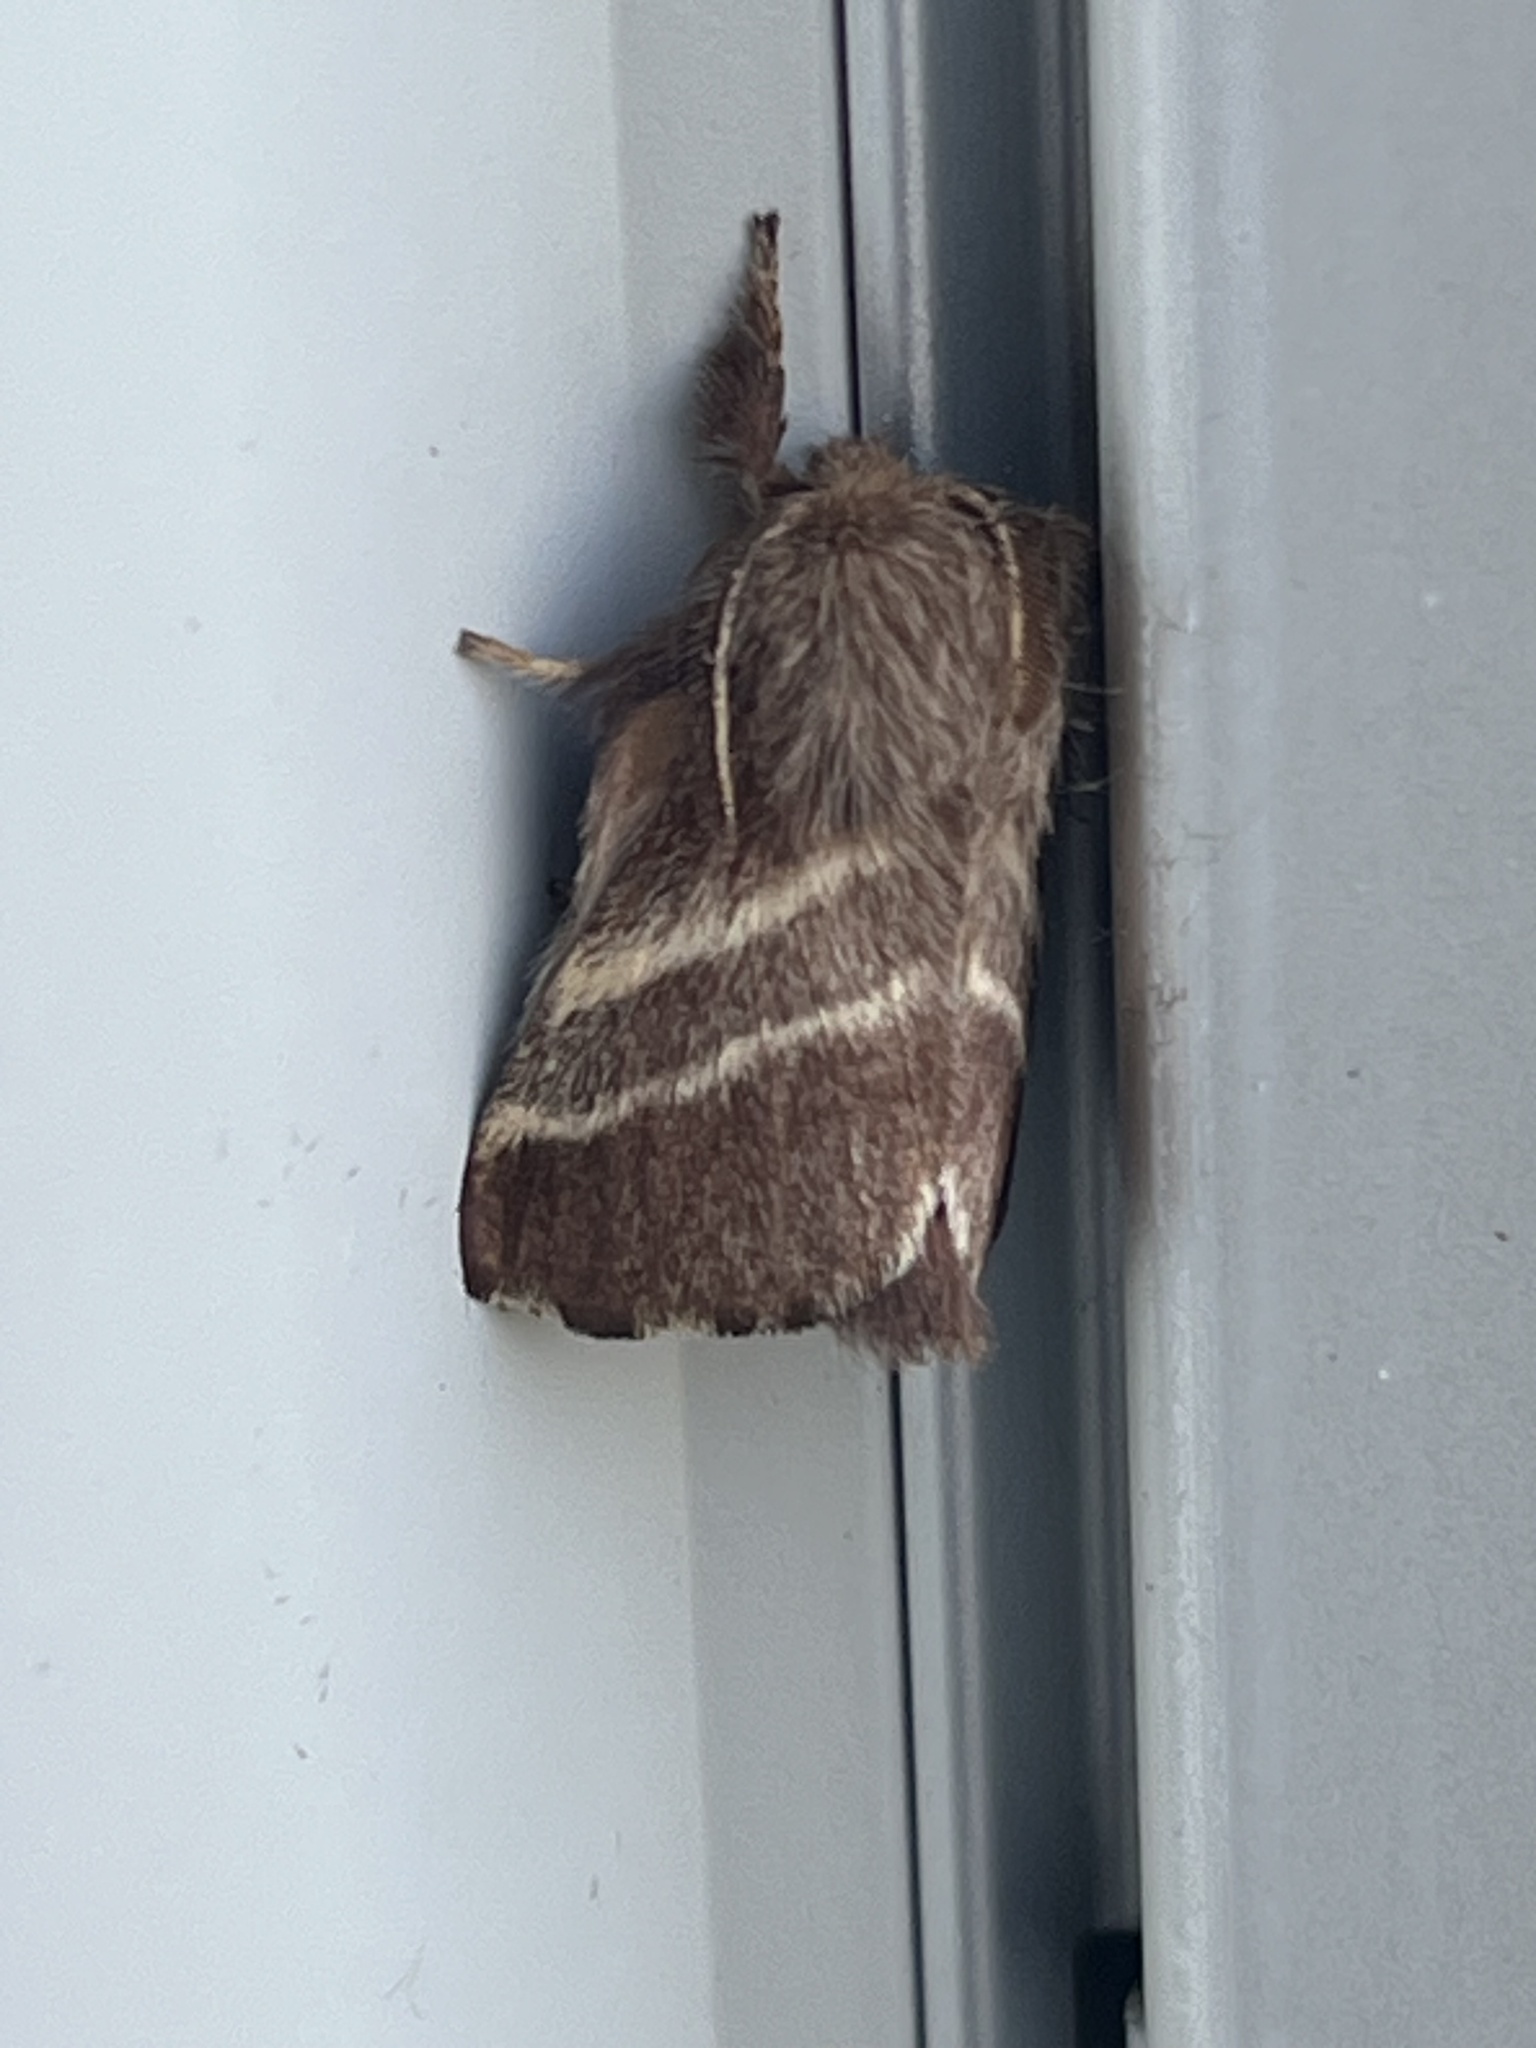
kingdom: Animalia
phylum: Arthropoda
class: Insecta
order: Lepidoptera
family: Lasiocampidae
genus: Malacosoma
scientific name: Malacosoma americana
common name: Eastern tent caterpillar moth
